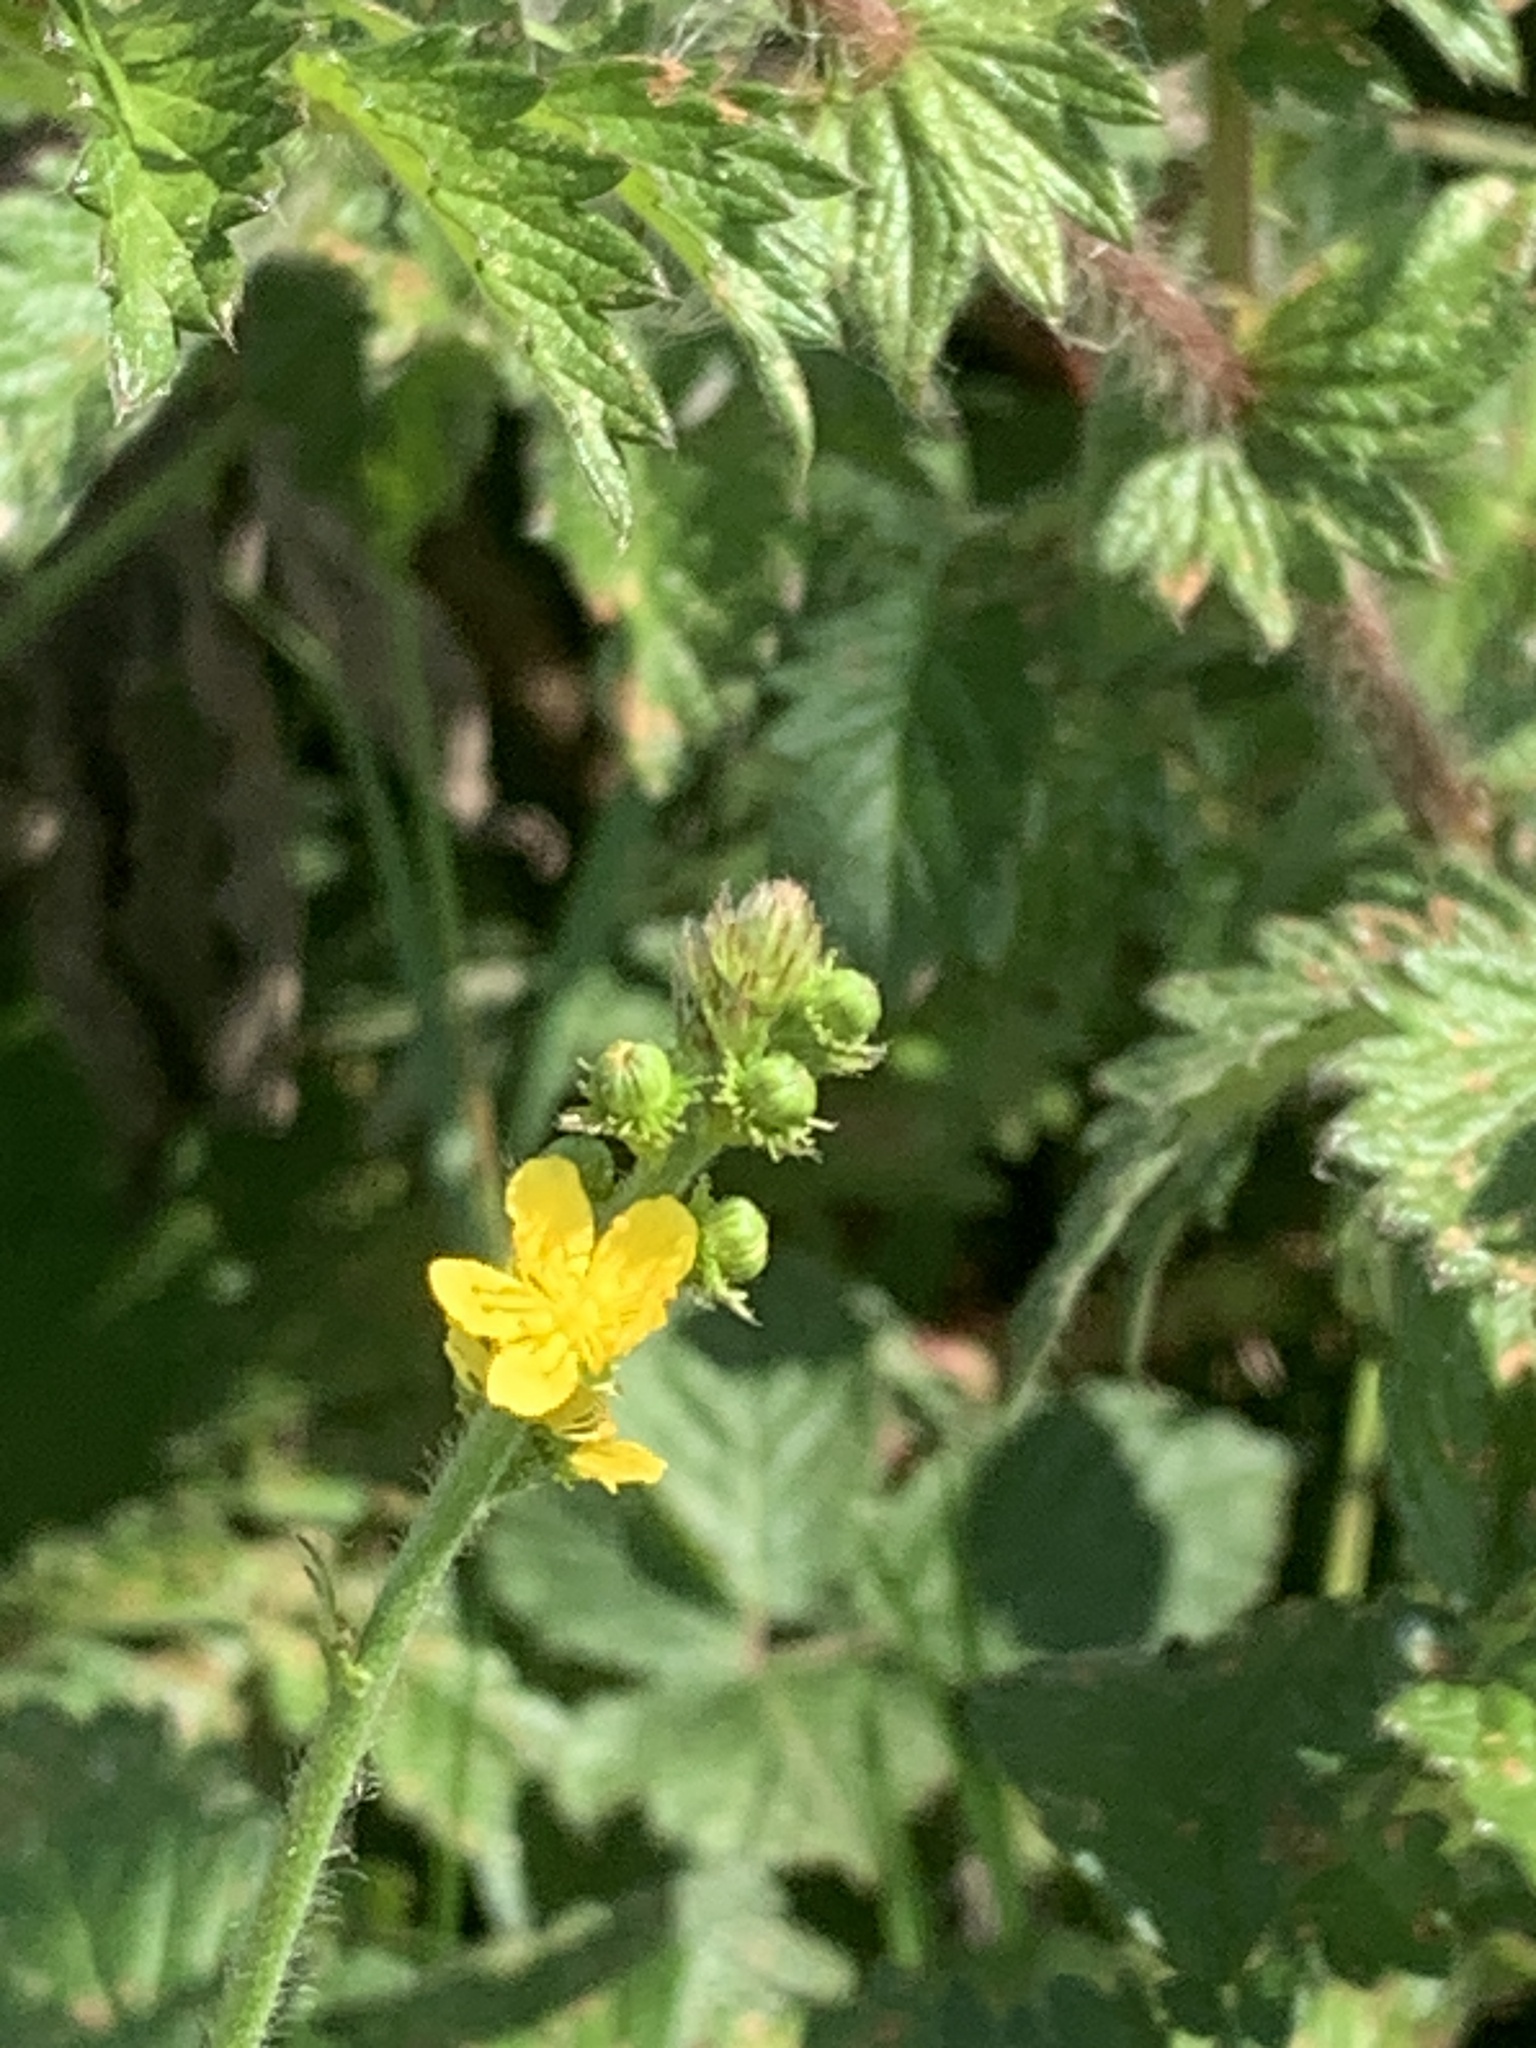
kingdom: Plantae
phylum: Tracheophyta
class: Magnoliopsida
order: Rosales
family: Rosaceae
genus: Agrimonia
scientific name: Agrimonia eupatoria
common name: Agrimony
